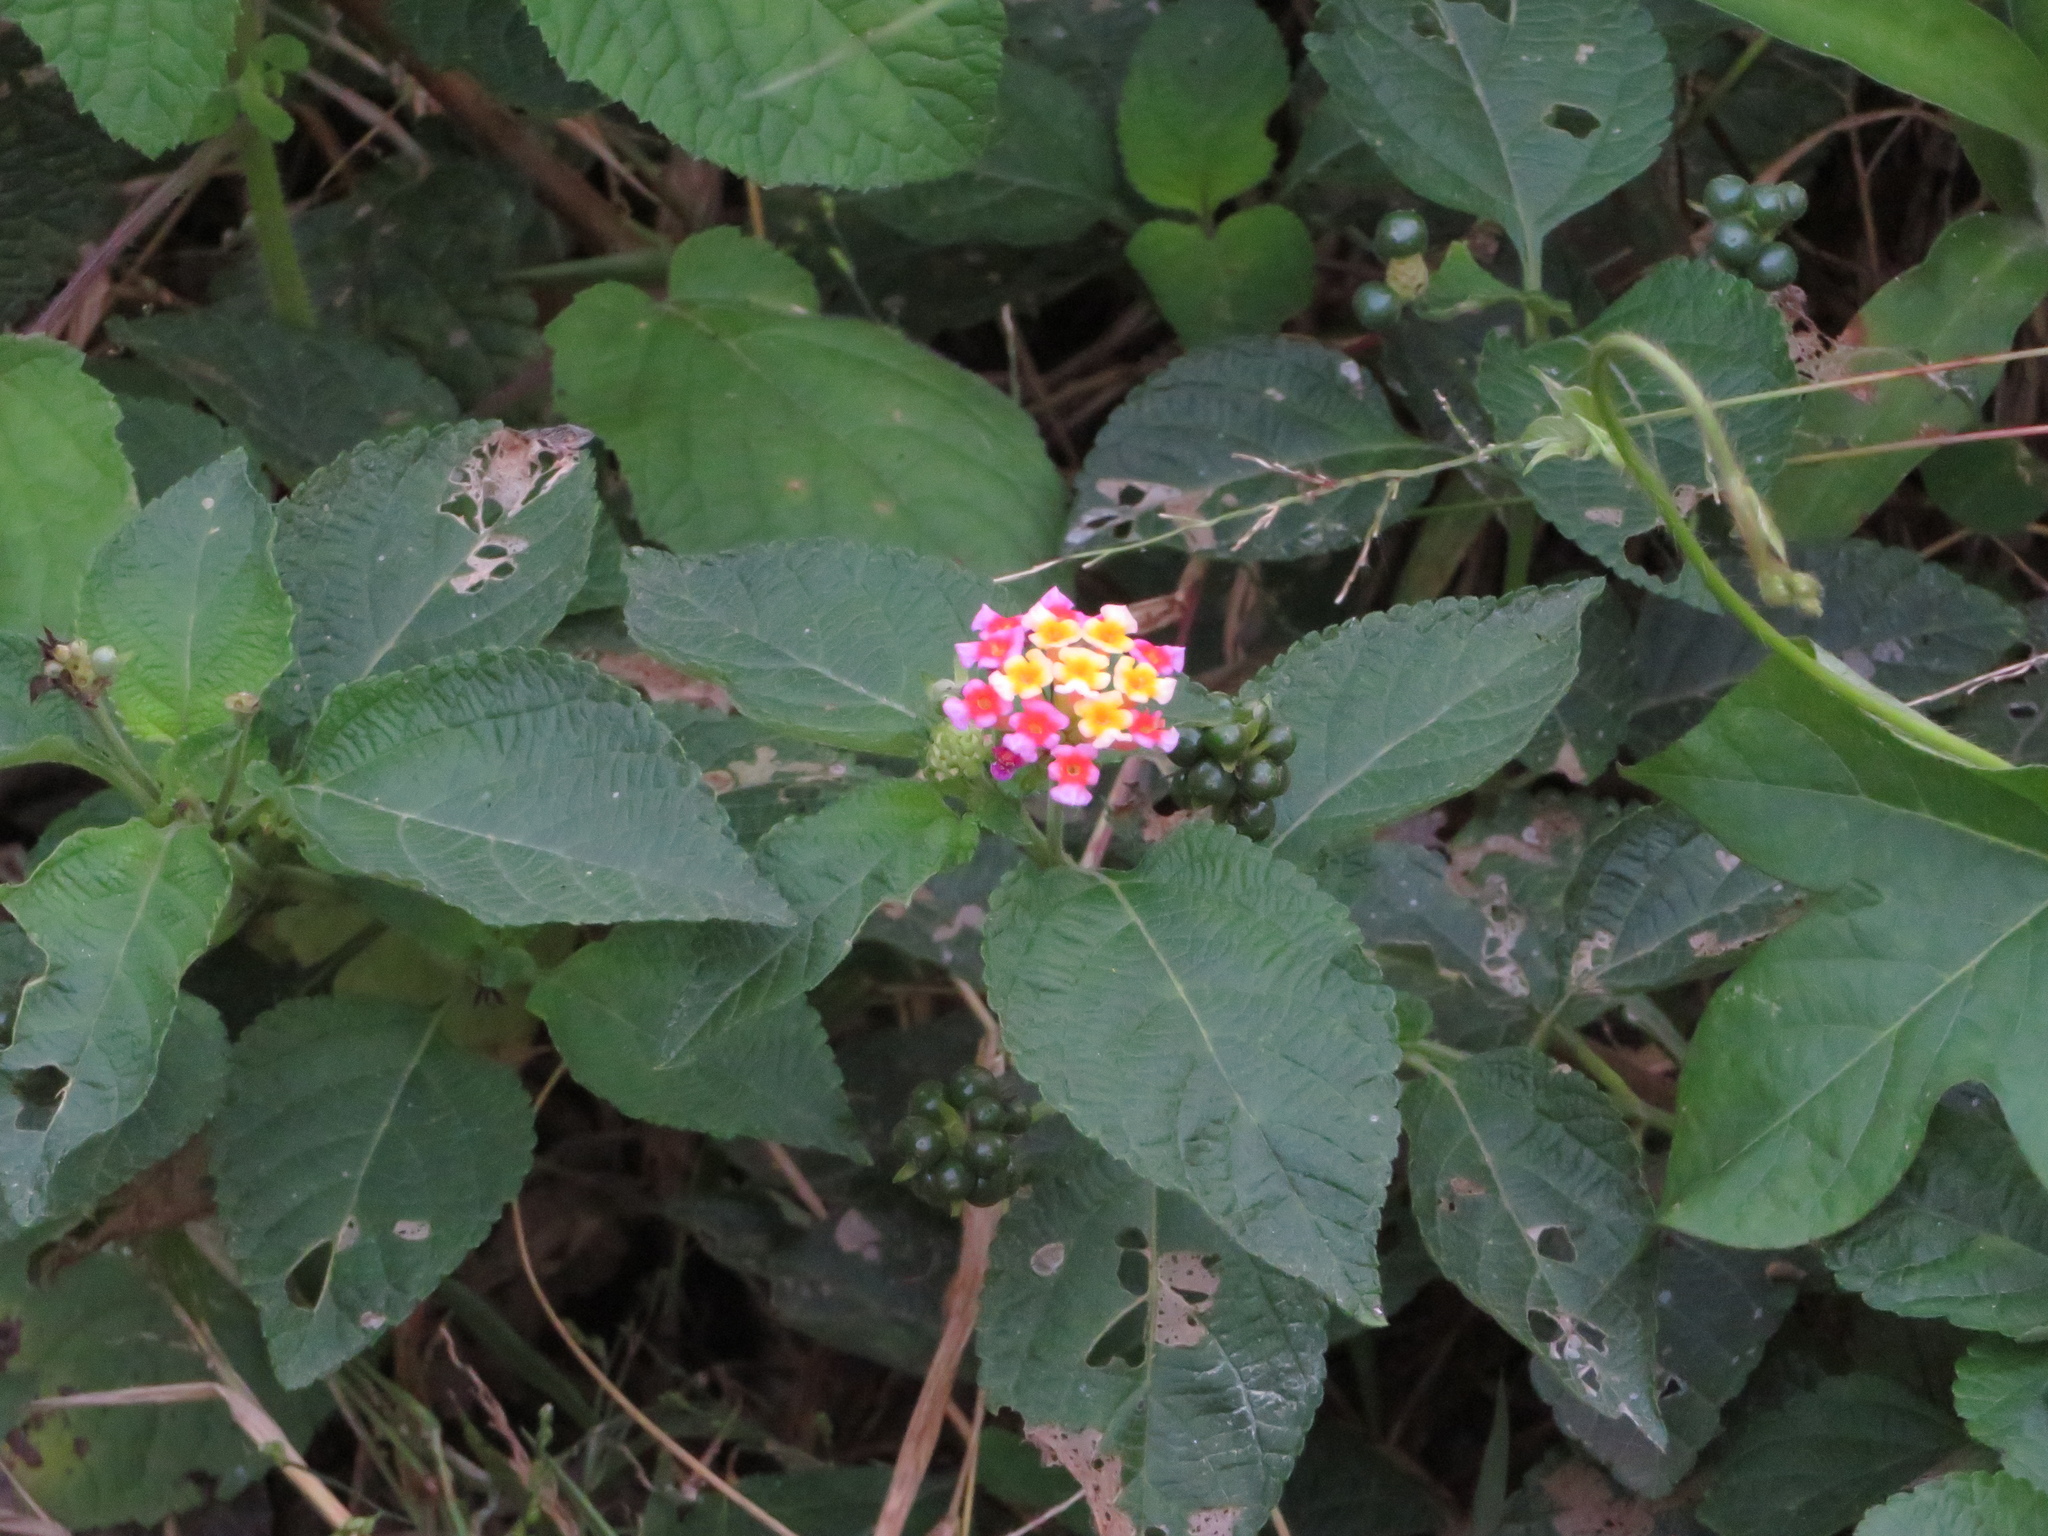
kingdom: Plantae
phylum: Tracheophyta
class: Magnoliopsida
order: Lamiales
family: Verbenaceae
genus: Lantana
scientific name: Lantana camara
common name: Lantana
